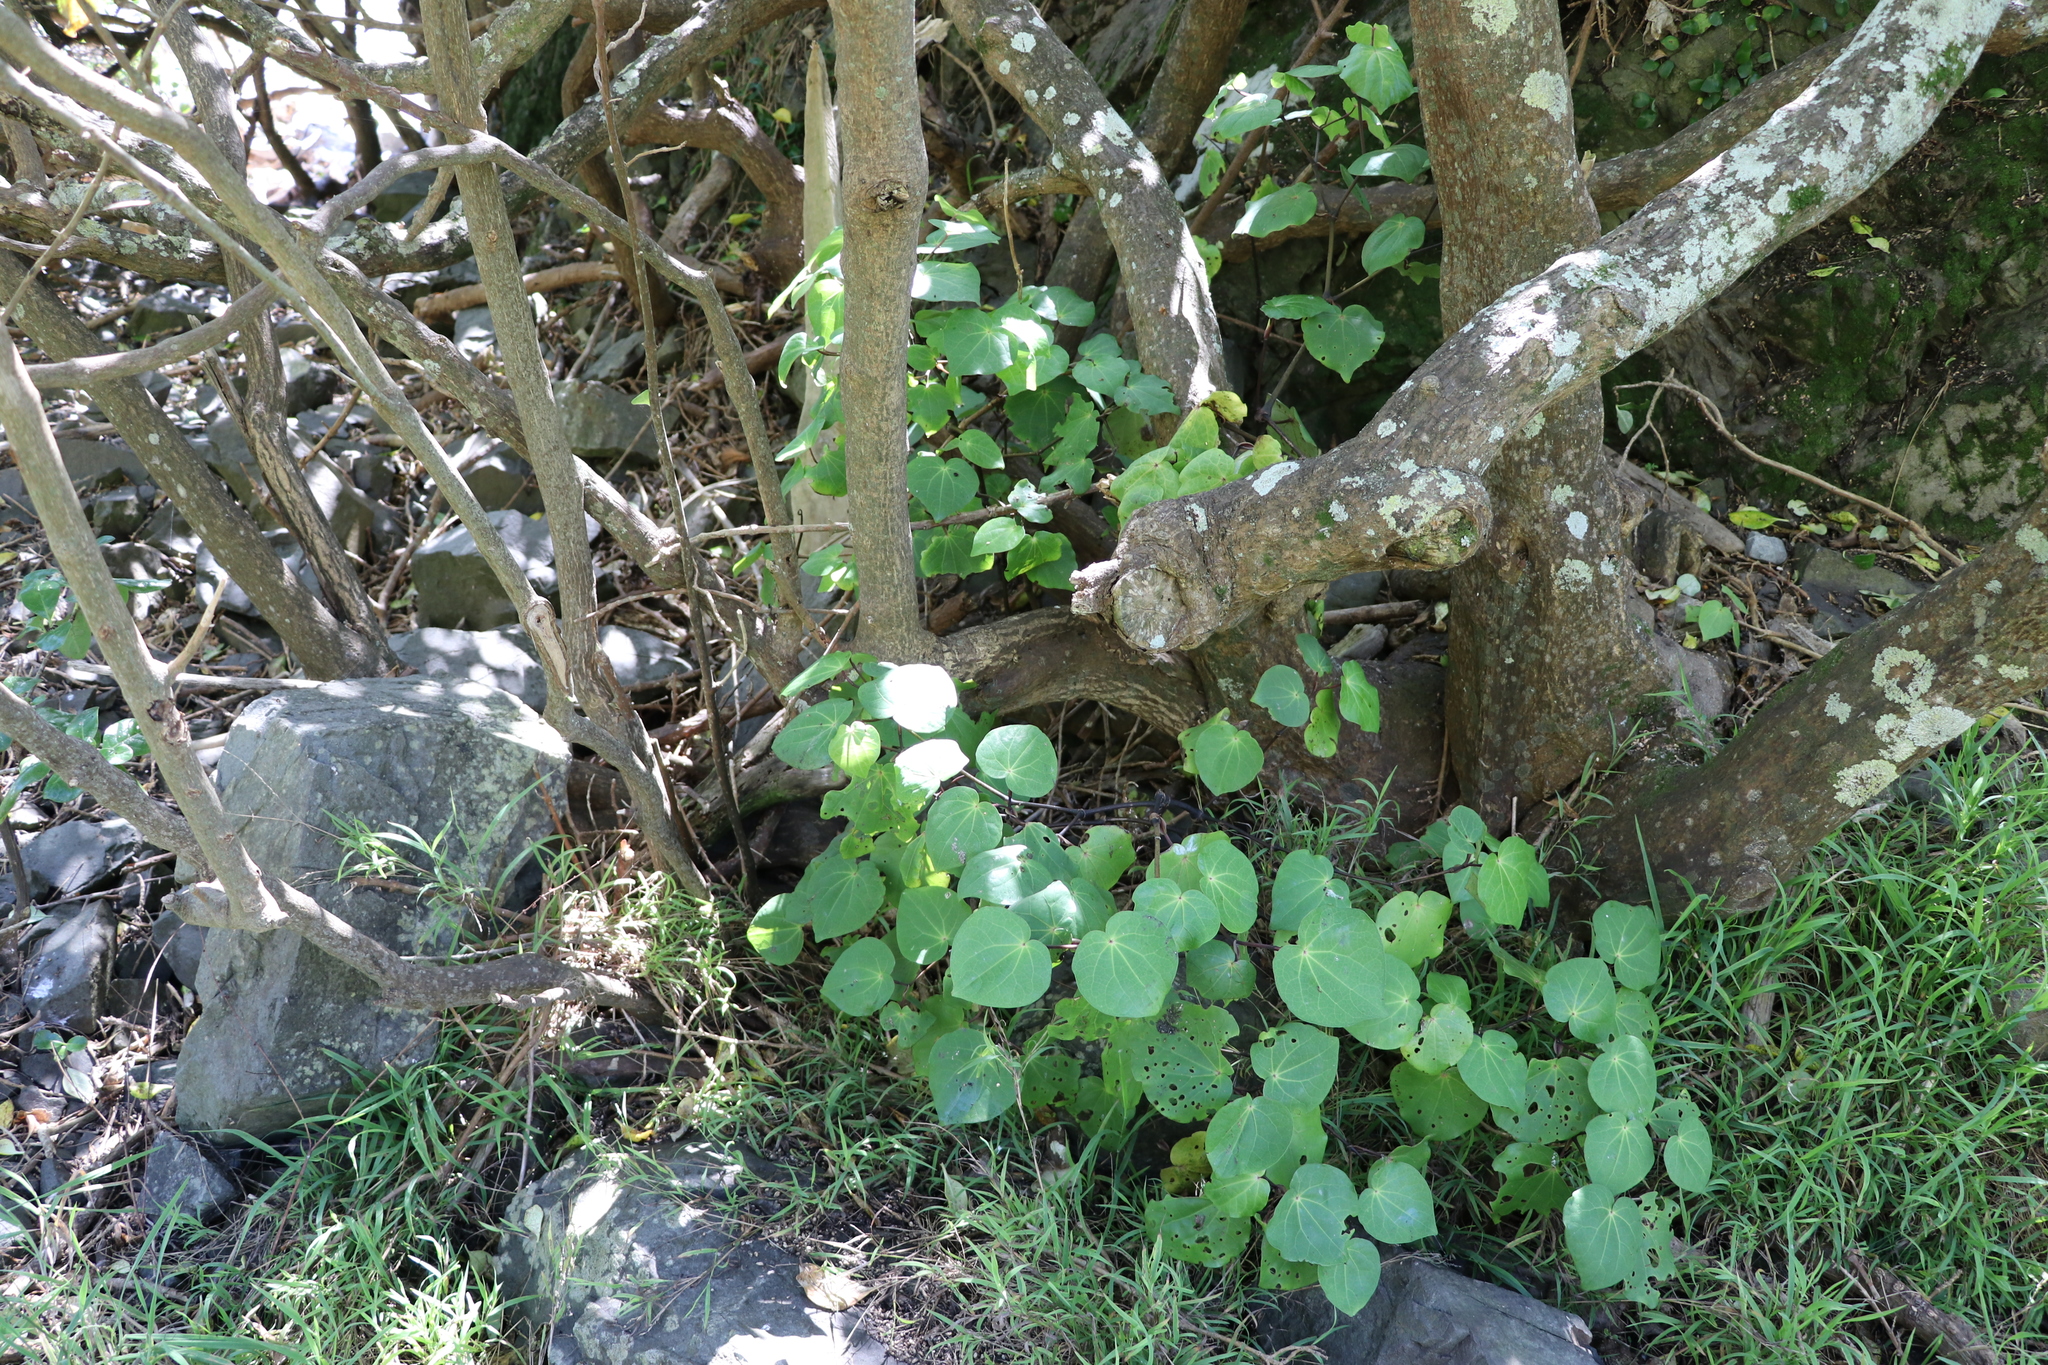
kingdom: Plantae
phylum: Tracheophyta
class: Magnoliopsida
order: Piperales
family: Piperaceae
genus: Macropiper
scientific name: Macropiper excelsum
